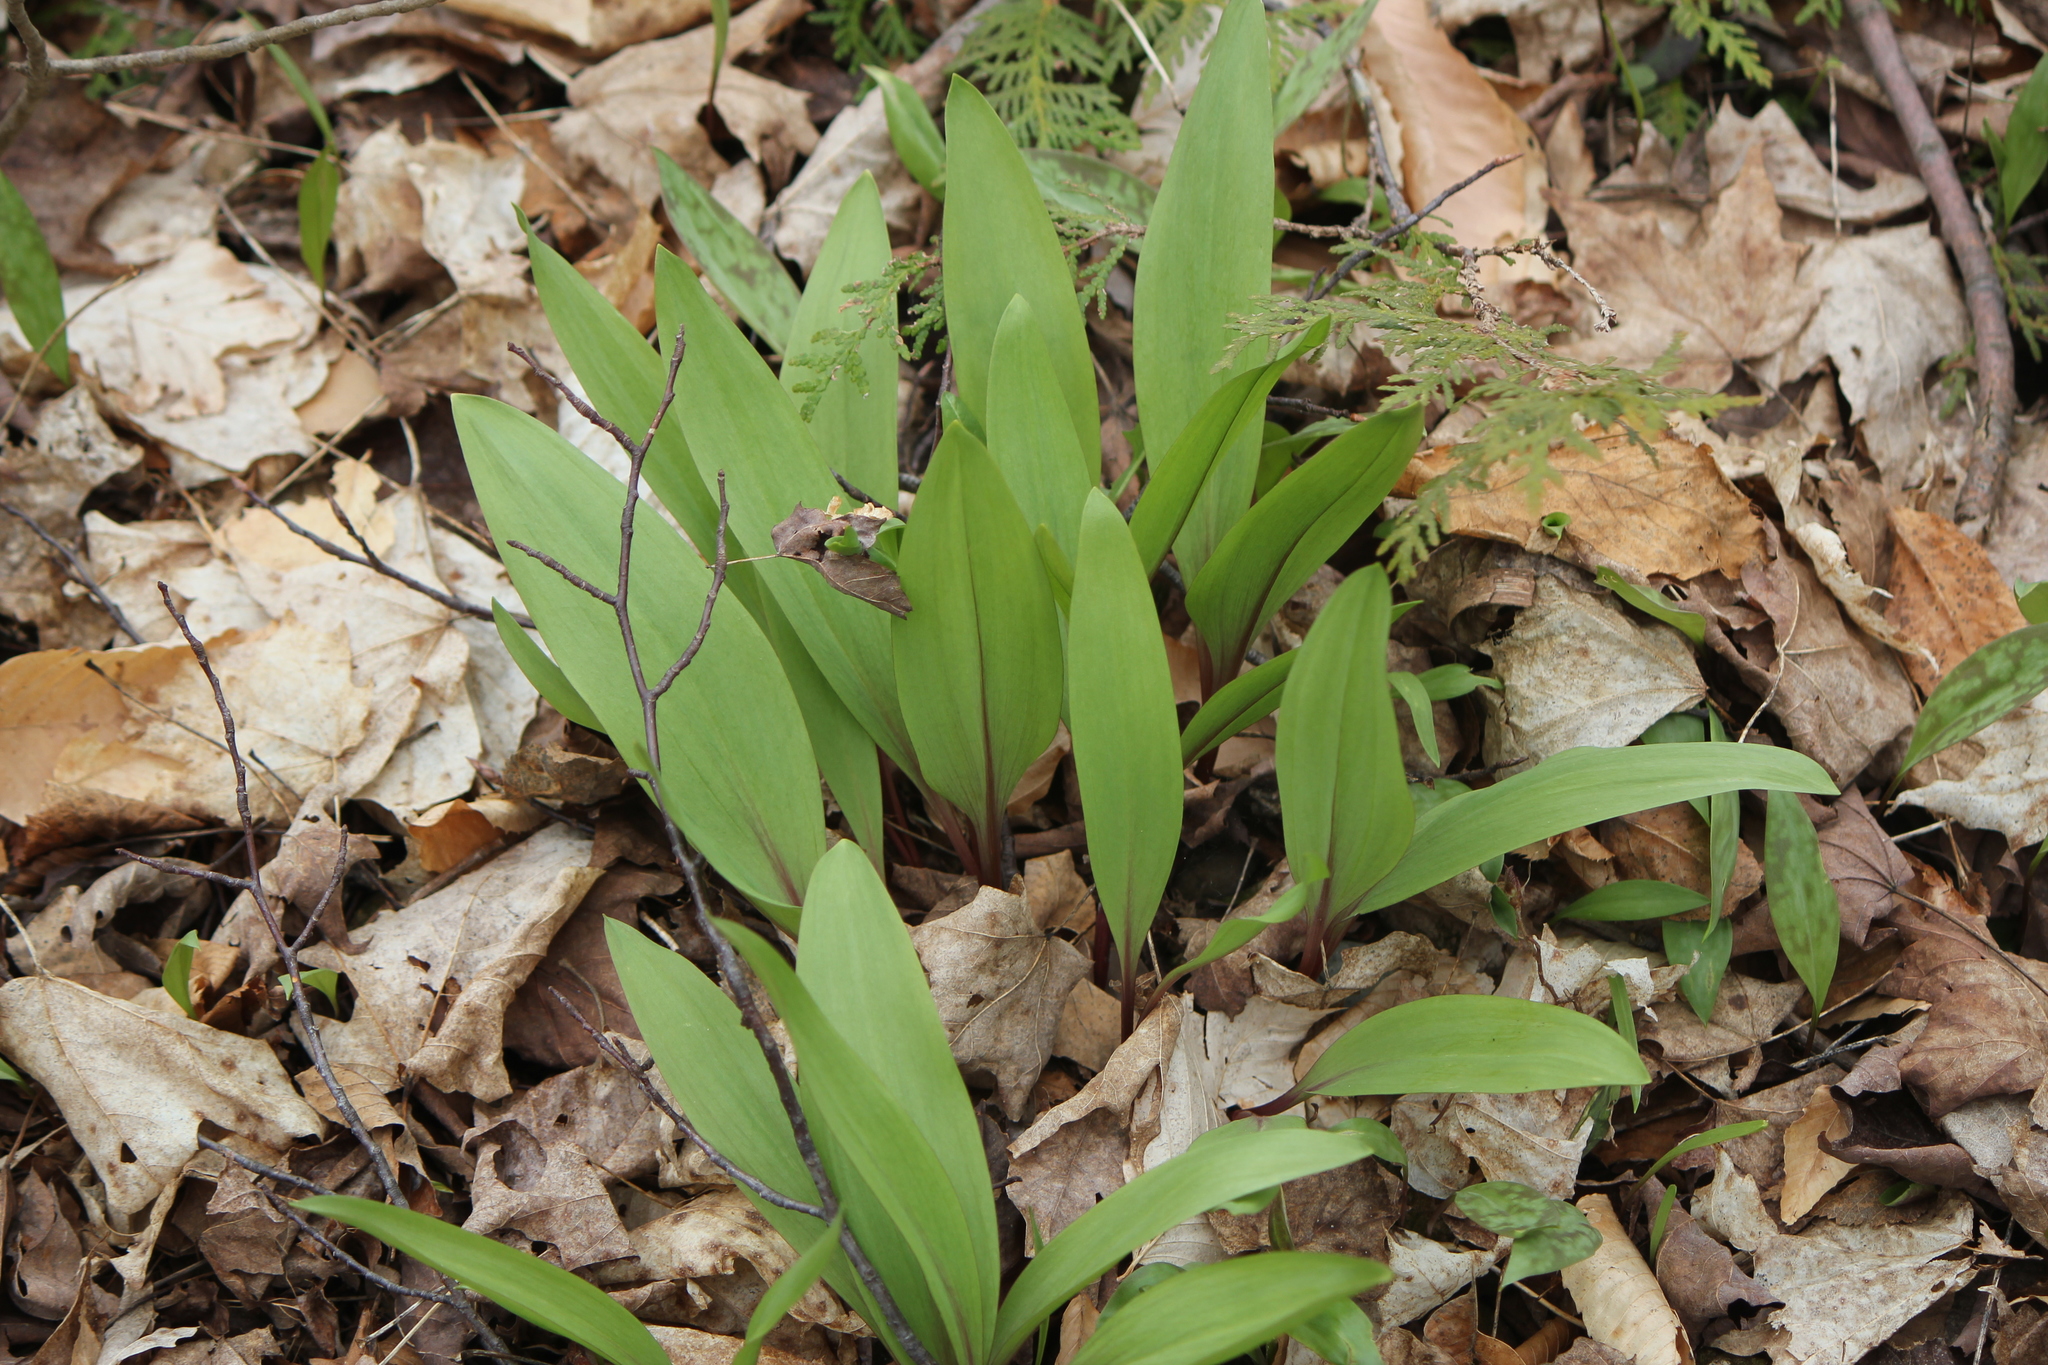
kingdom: Plantae
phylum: Tracheophyta
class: Liliopsida
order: Asparagales
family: Amaryllidaceae
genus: Allium
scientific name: Allium tricoccum
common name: Ramp
